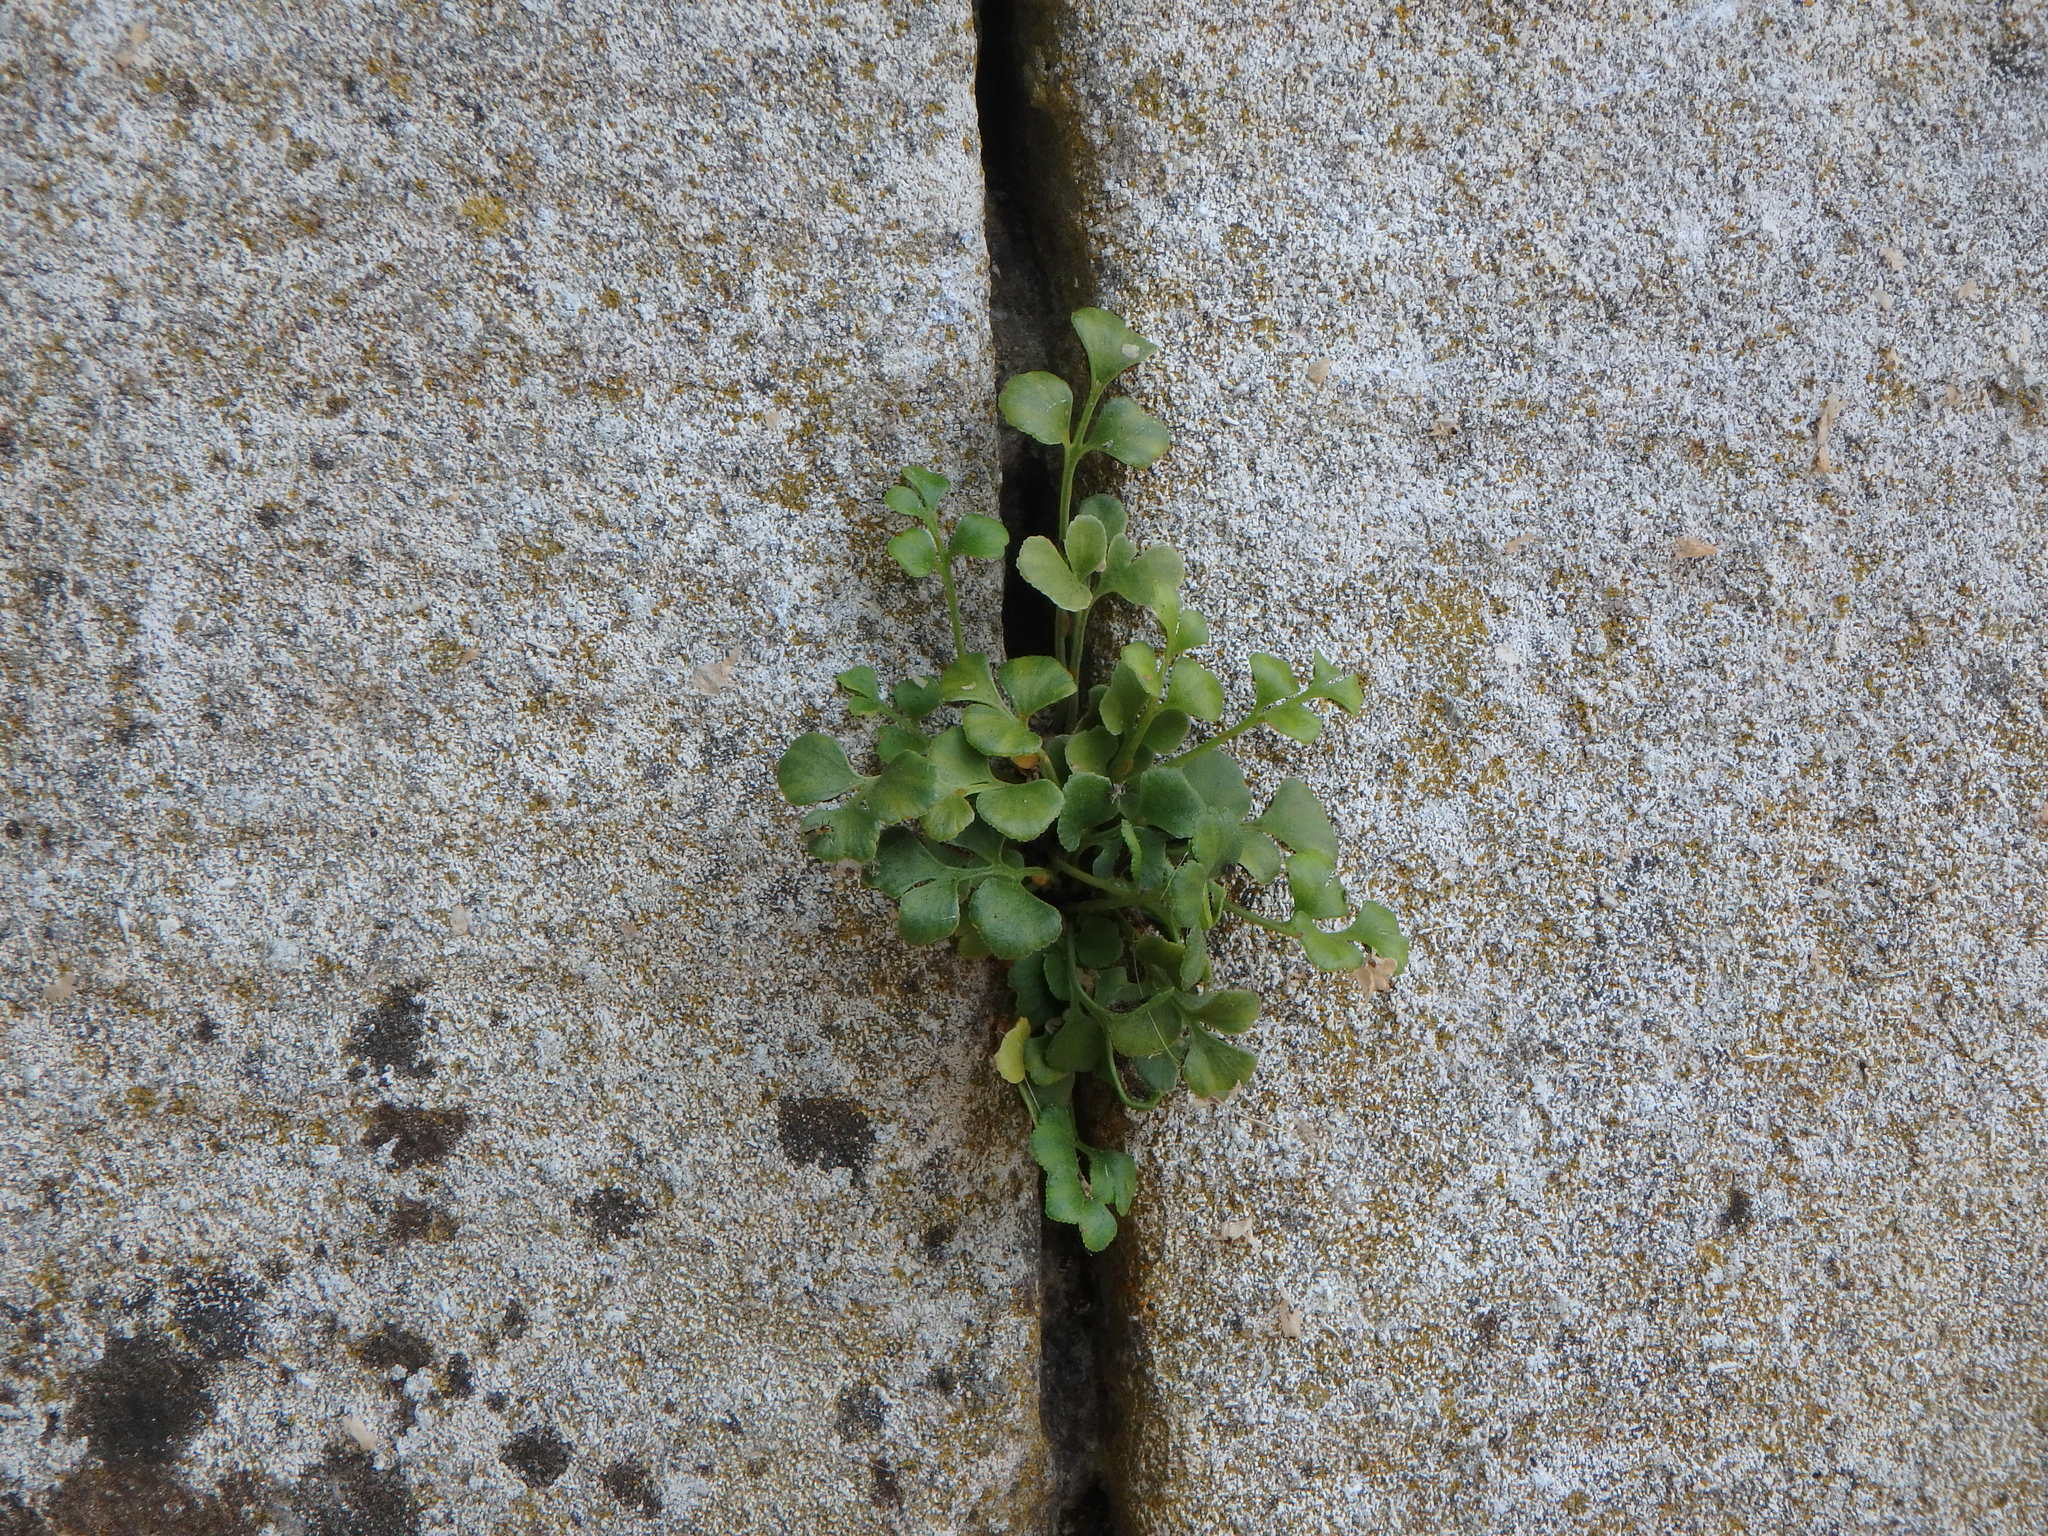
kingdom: Plantae
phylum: Tracheophyta
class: Polypodiopsida
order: Polypodiales
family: Aspleniaceae
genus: Asplenium
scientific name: Asplenium ruta-muraria
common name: Wall-rue
